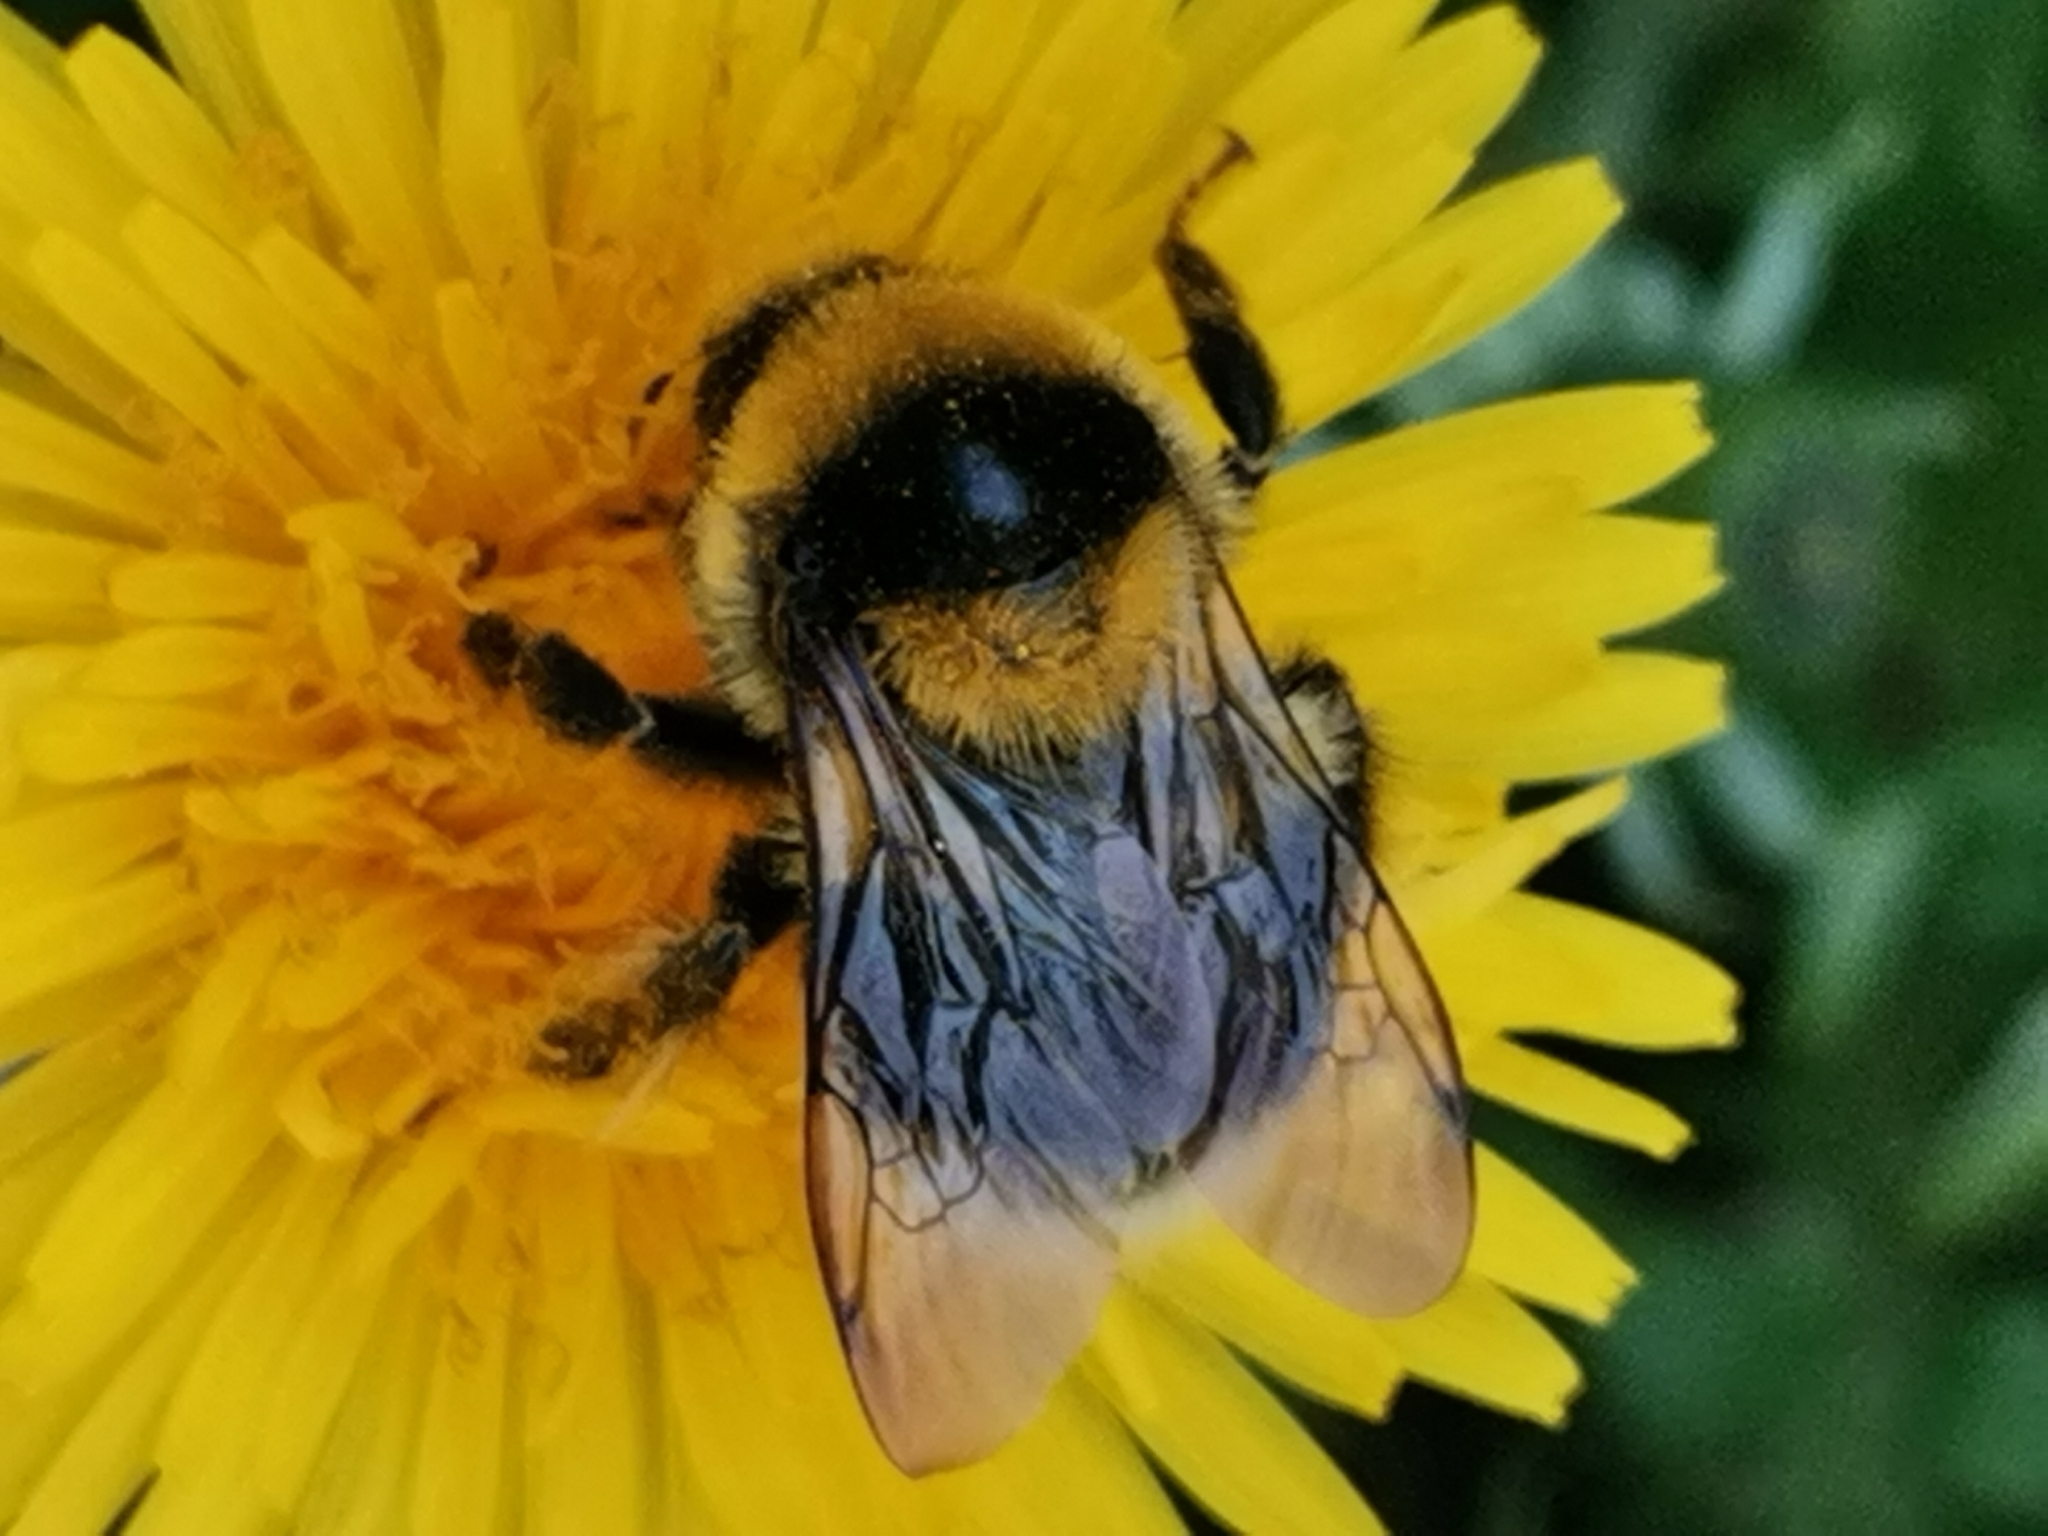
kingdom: Animalia
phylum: Arthropoda
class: Insecta
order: Hymenoptera
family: Apidae
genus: Bombus
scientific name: Bombus semenoviellus
